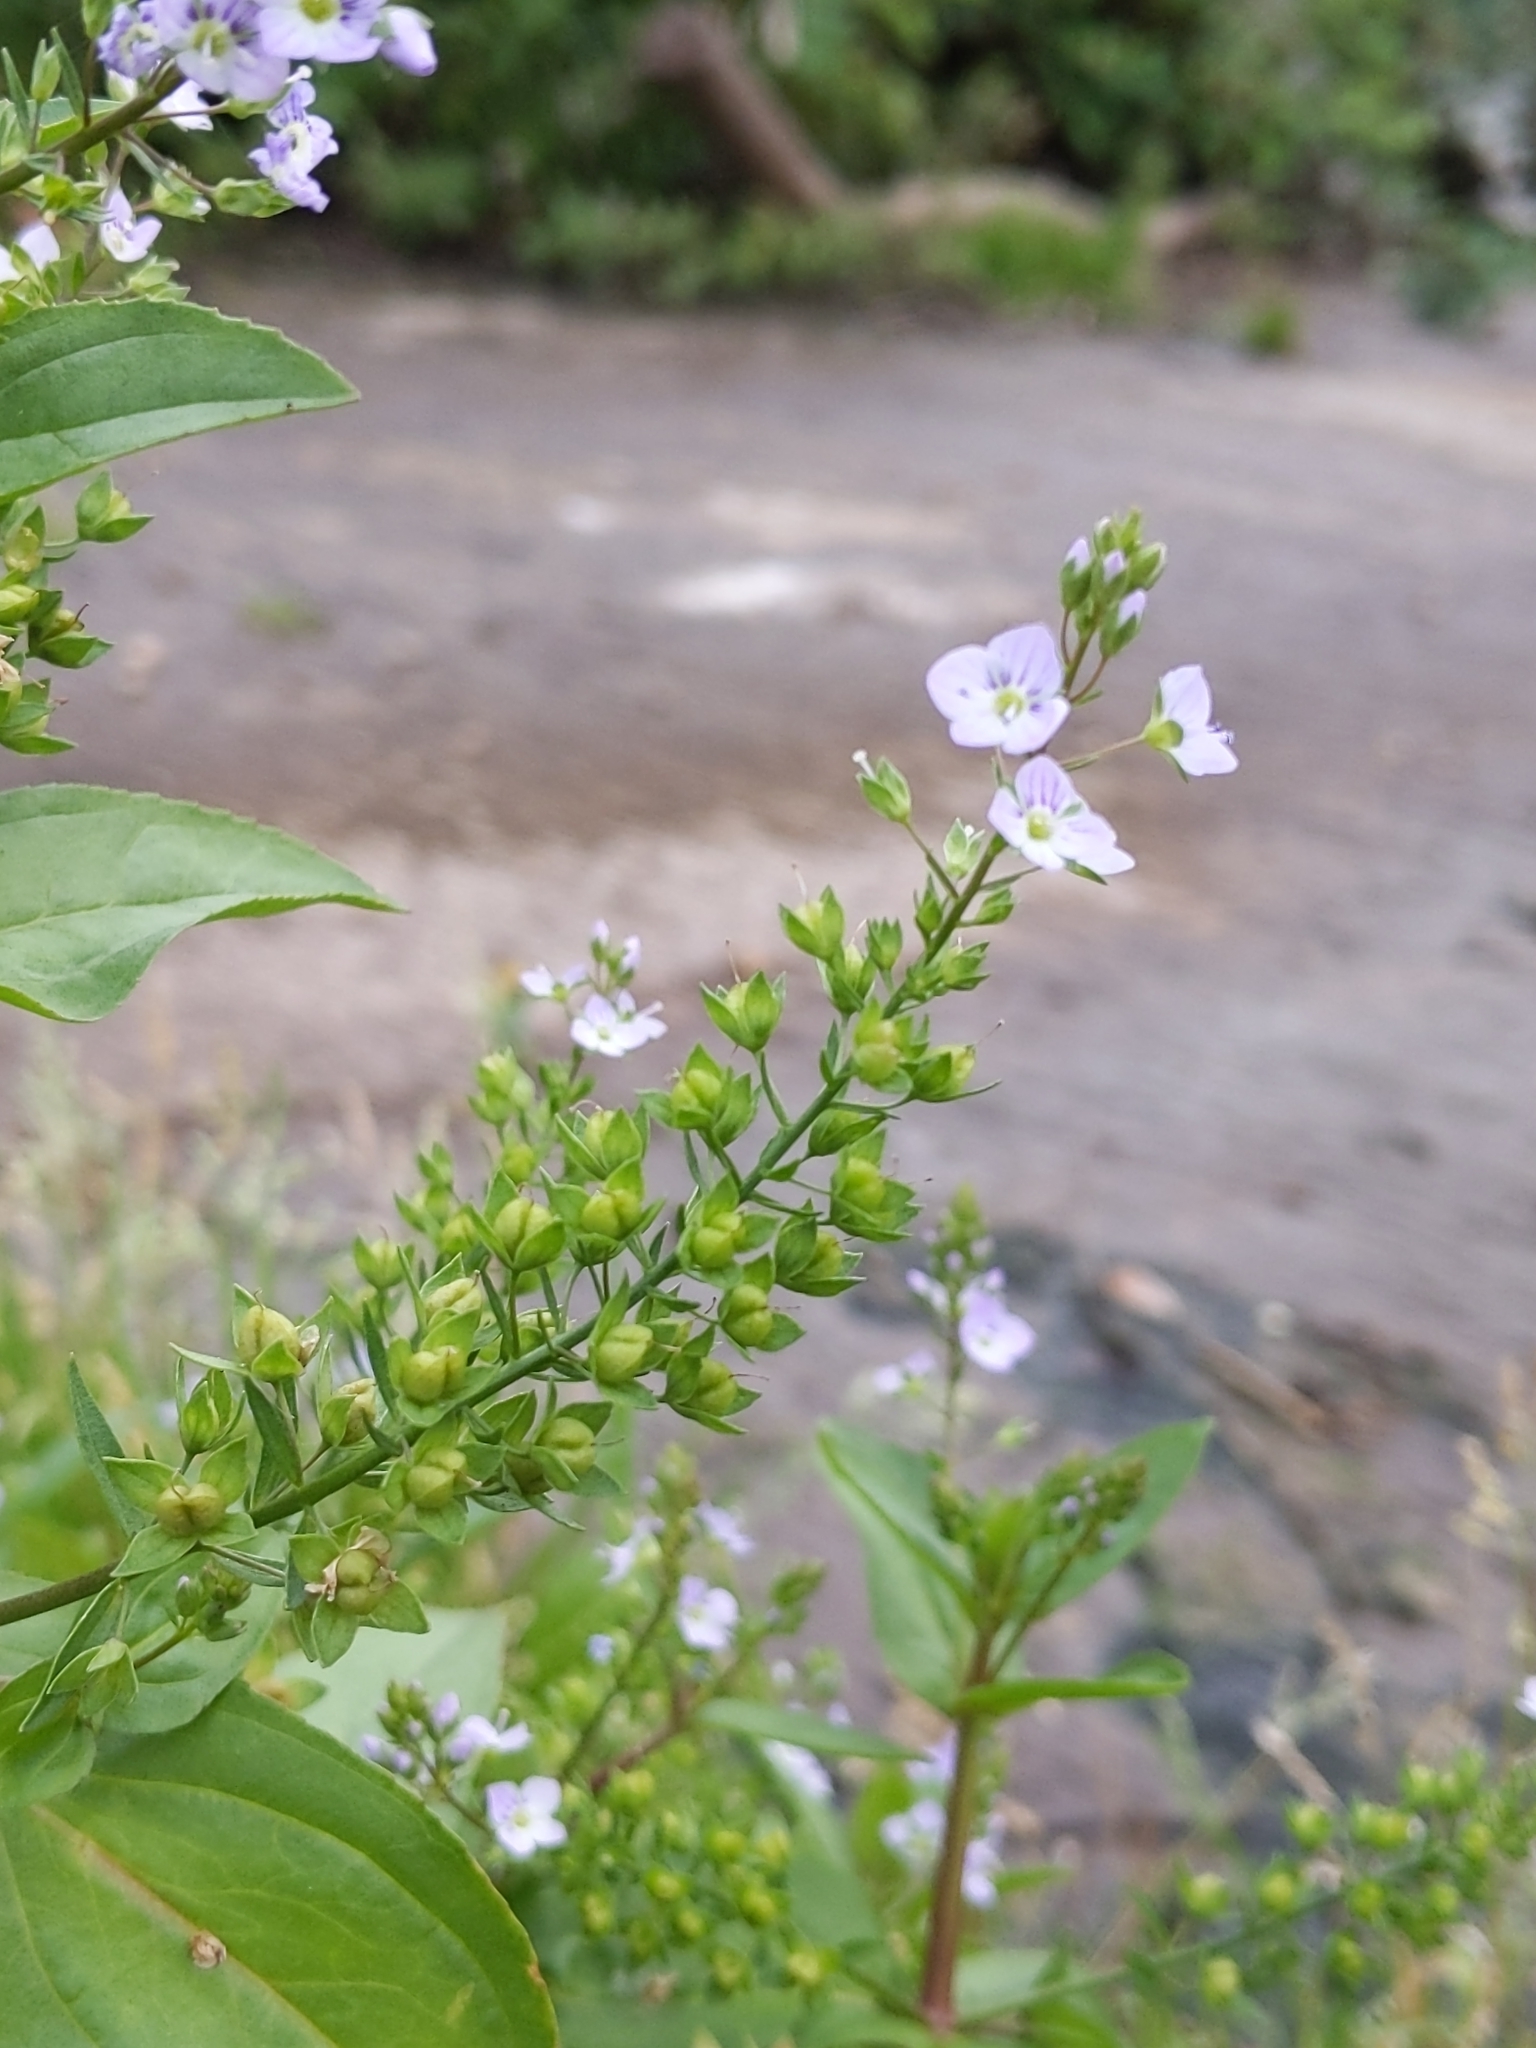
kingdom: Plantae
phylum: Tracheophyta
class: Magnoliopsida
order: Lamiales
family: Plantaginaceae
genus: Veronica
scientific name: Veronica anagallis-aquatica
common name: Water speedwell
